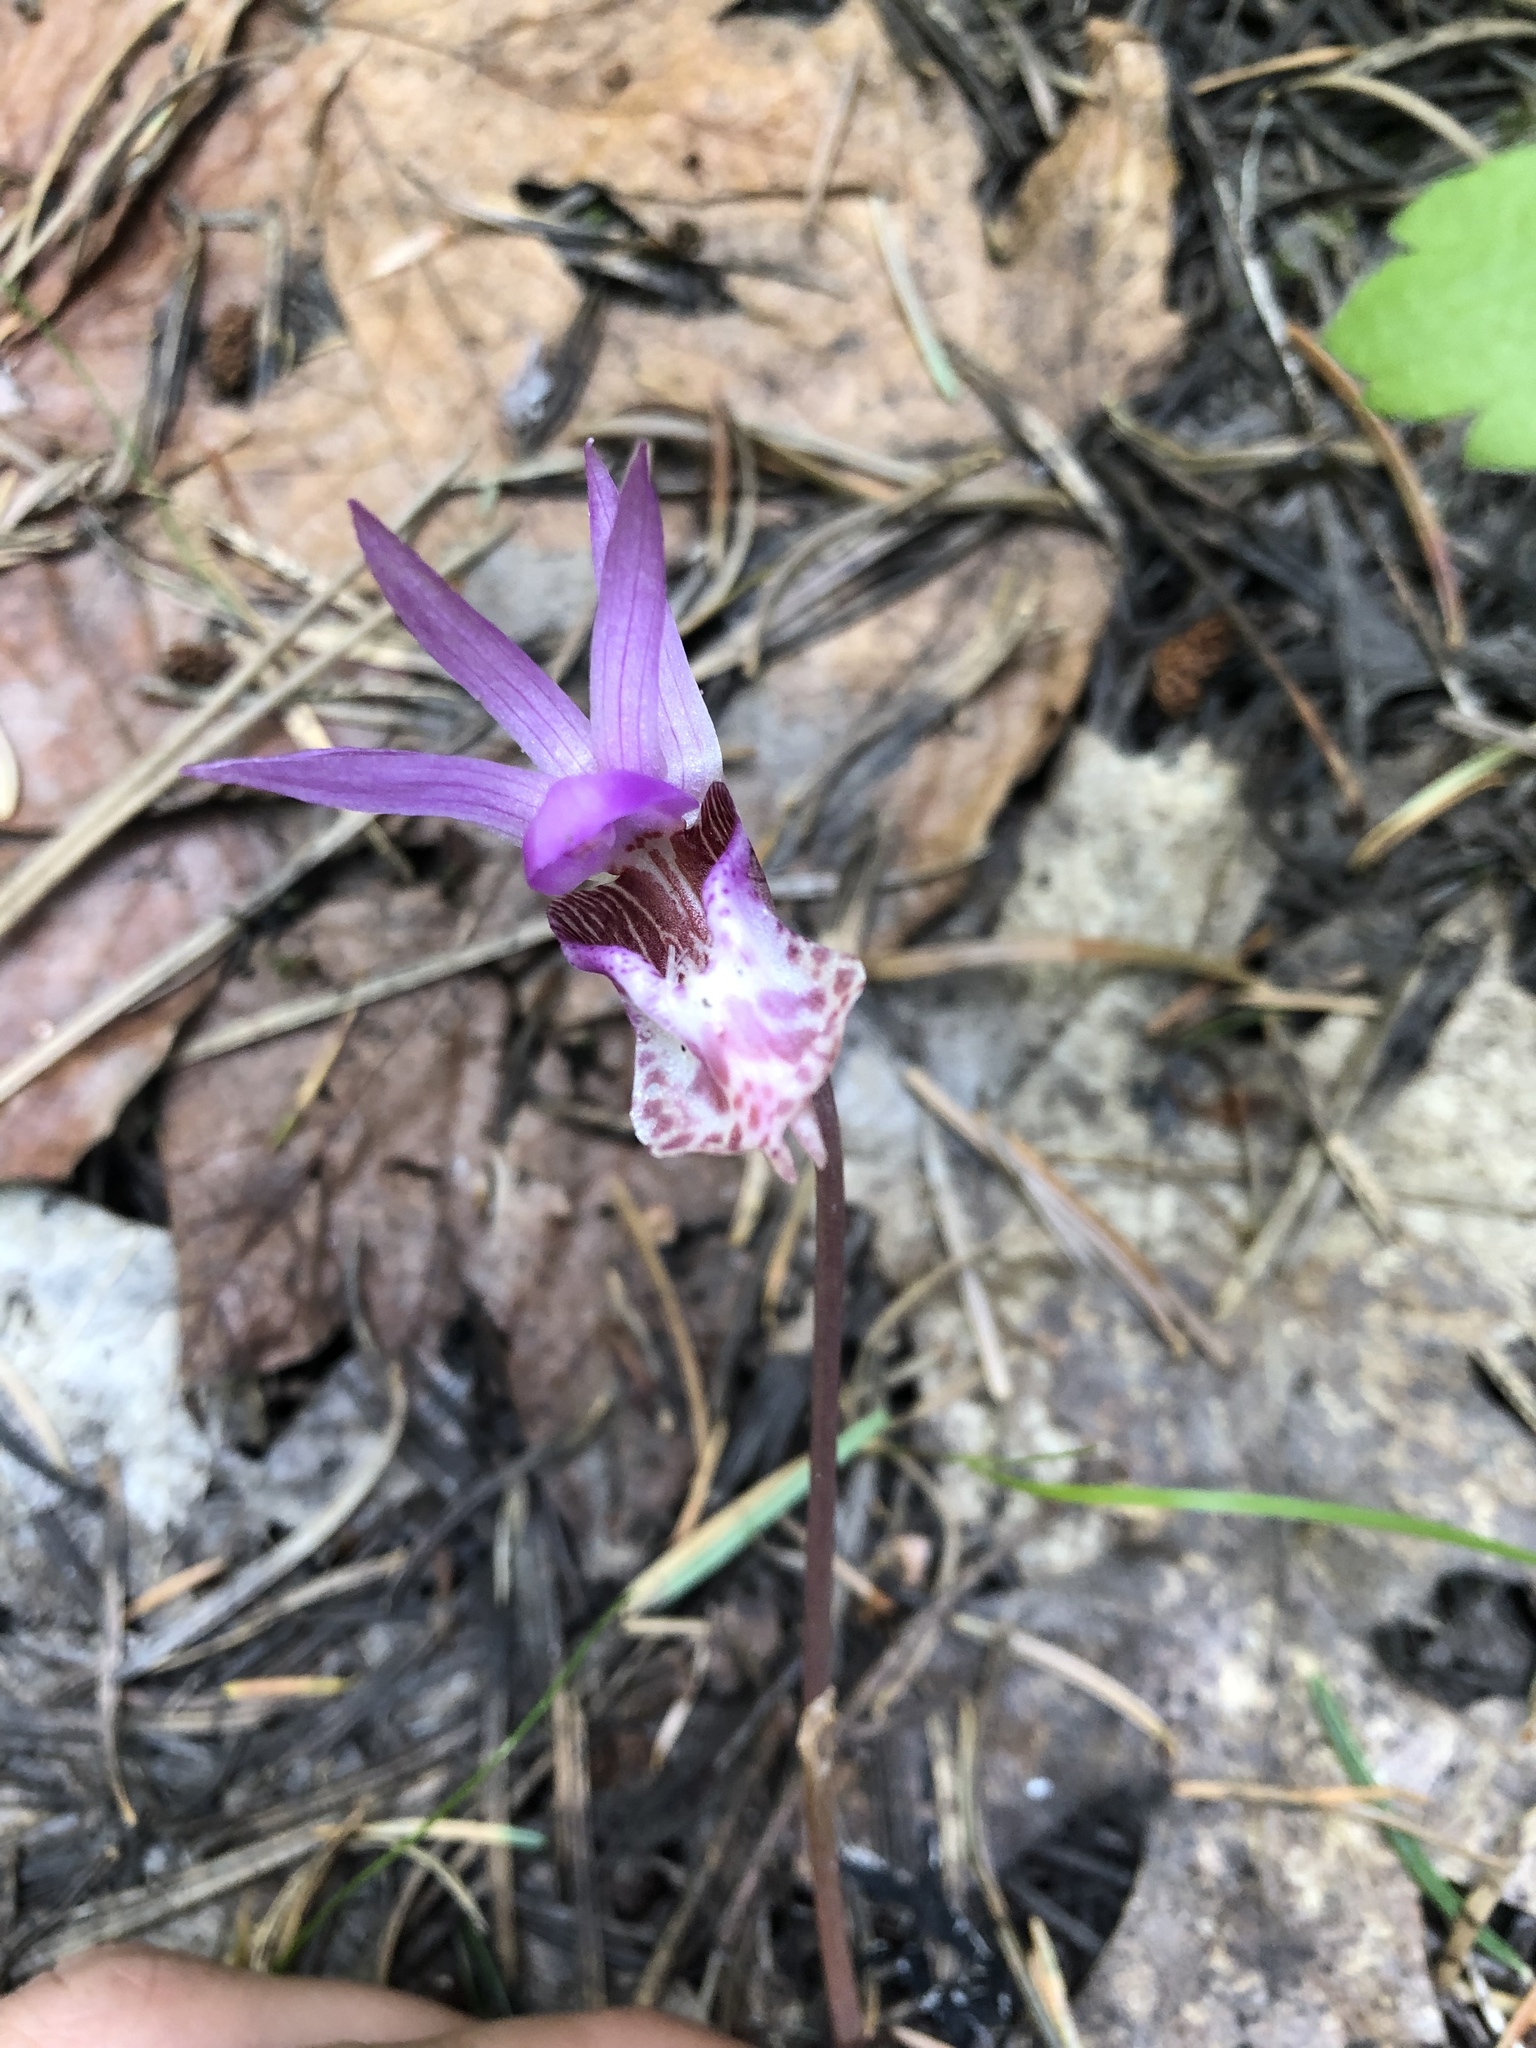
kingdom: Plantae
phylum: Tracheophyta
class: Liliopsida
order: Asparagales
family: Orchidaceae
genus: Calypso
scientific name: Calypso bulbosa
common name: Calypso
